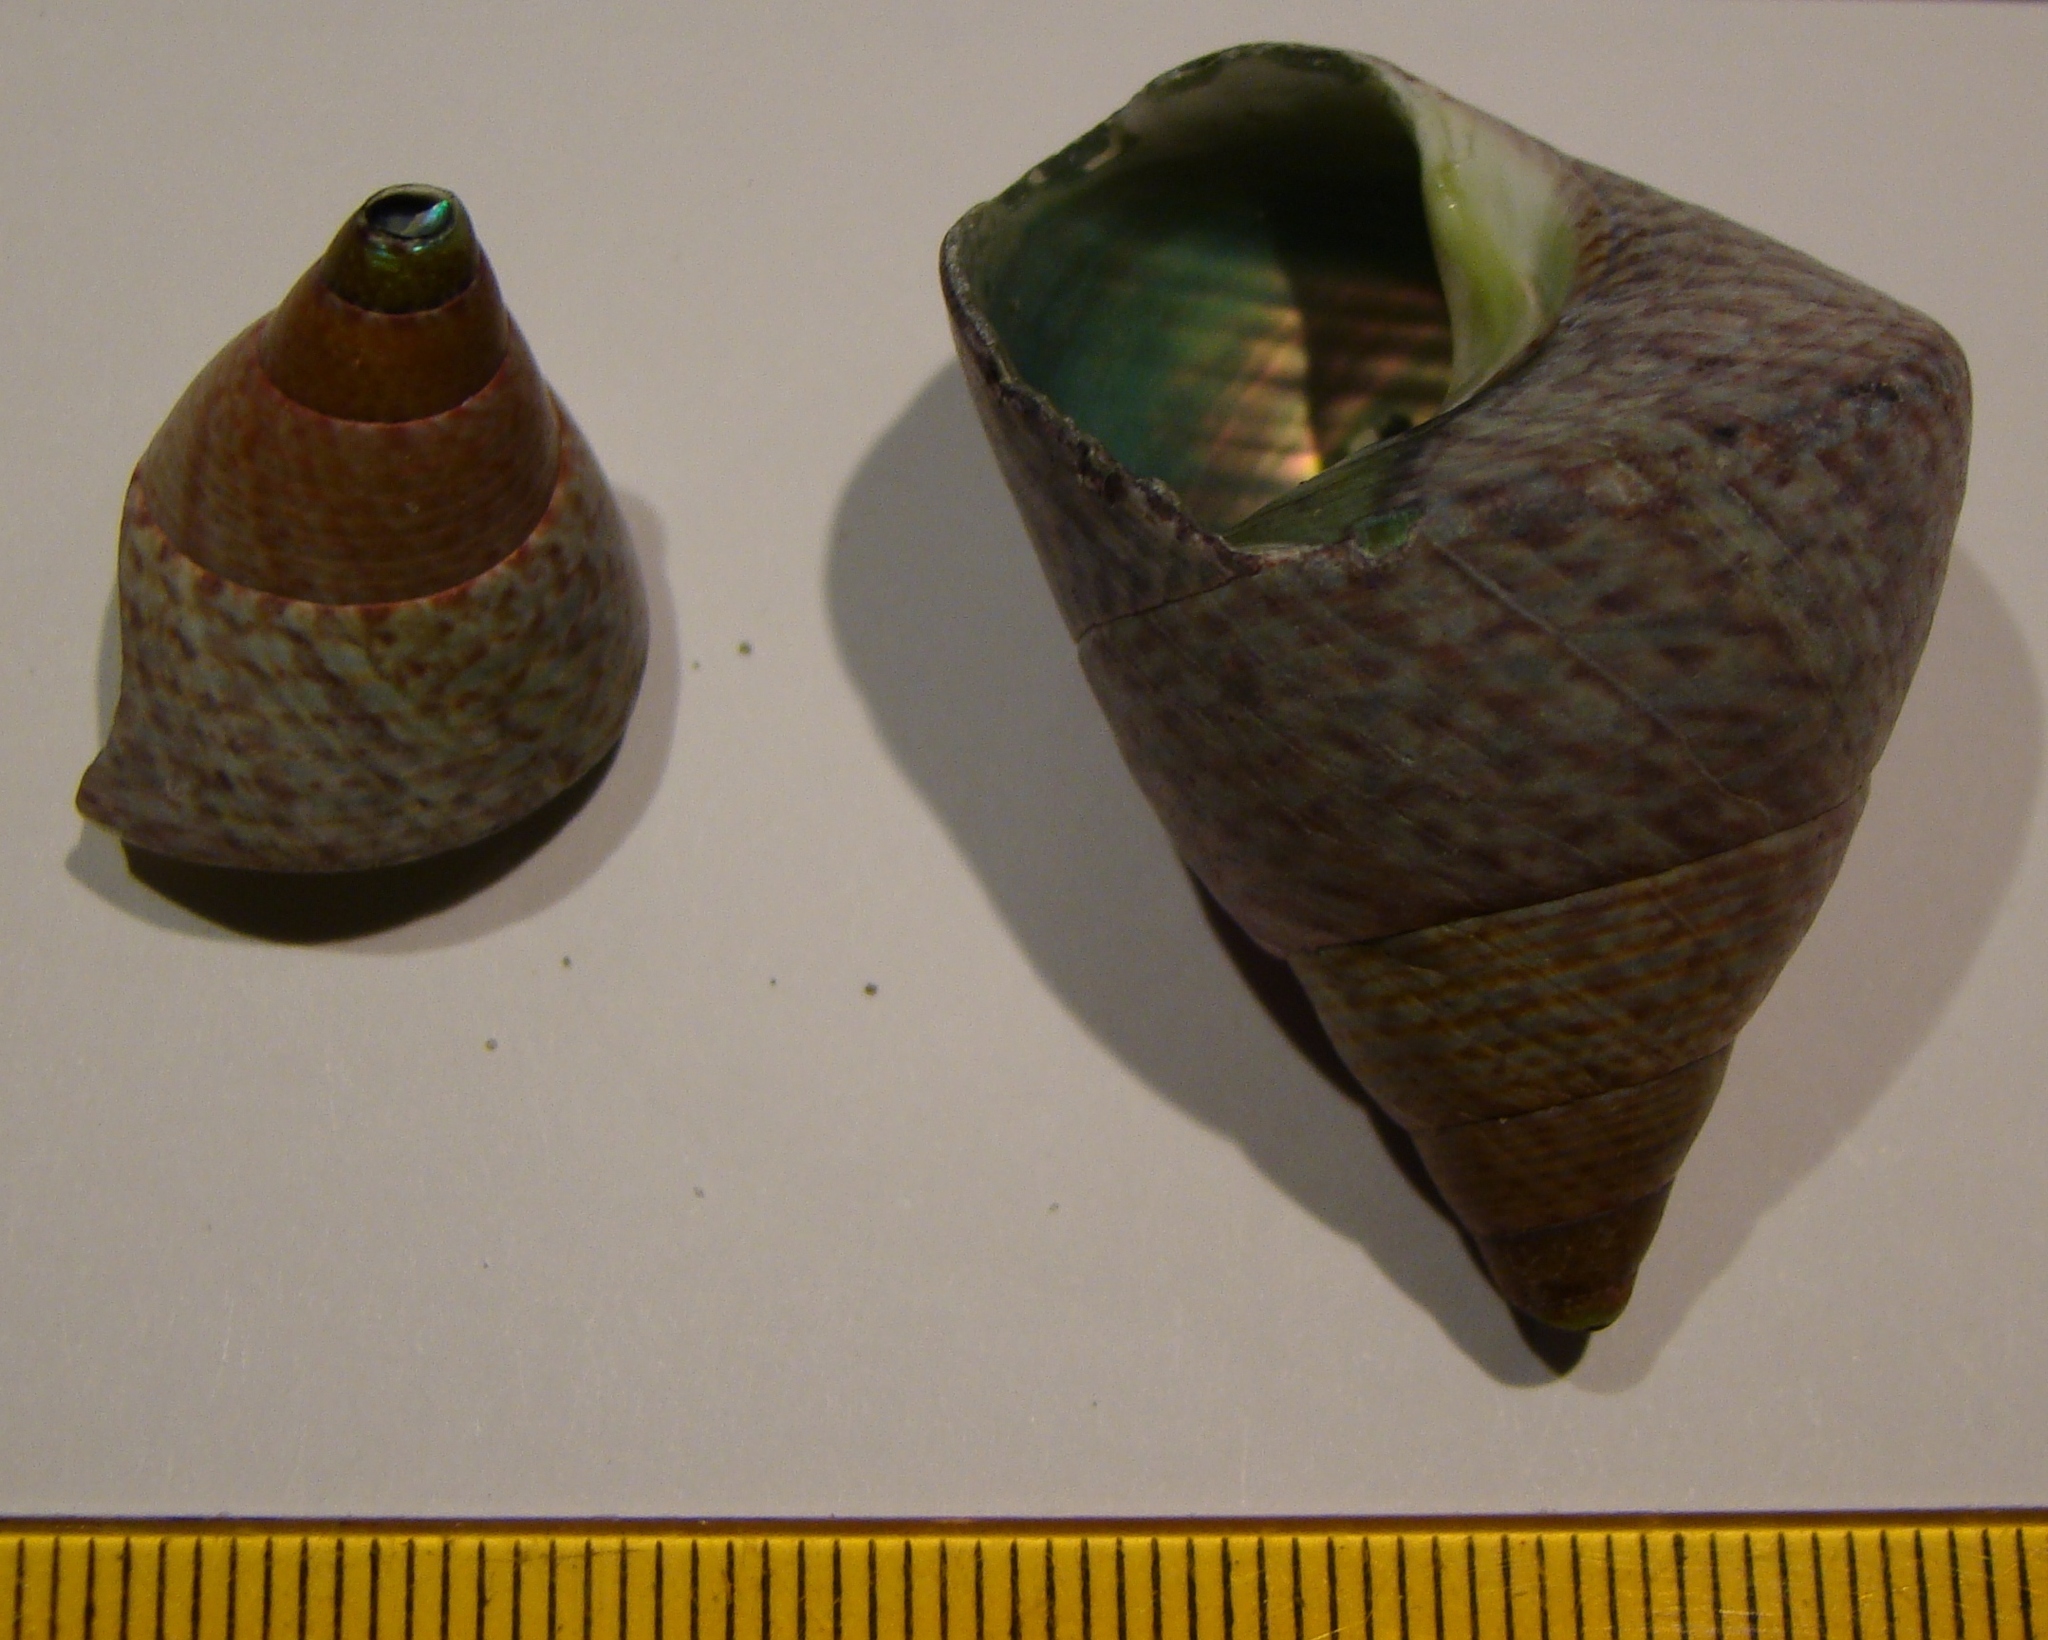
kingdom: Animalia
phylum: Mollusca
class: Gastropoda
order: Trochida
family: Trochidae
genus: Cantharidus
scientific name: Cantharidus opalus
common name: Opal jewel topsnail
